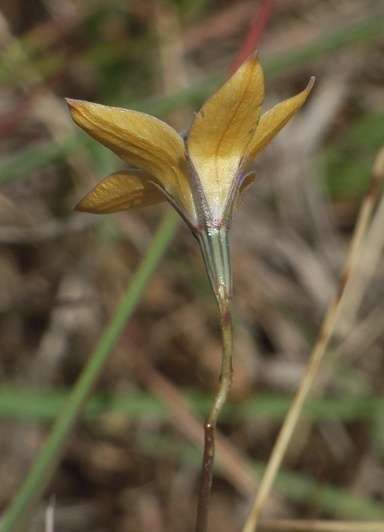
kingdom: Plantae
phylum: Tracheophyta
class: Magnoliopsida
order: Asterales
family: Campanulaceae
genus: Wahlenbergia
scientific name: Wahlenbergia luteola
